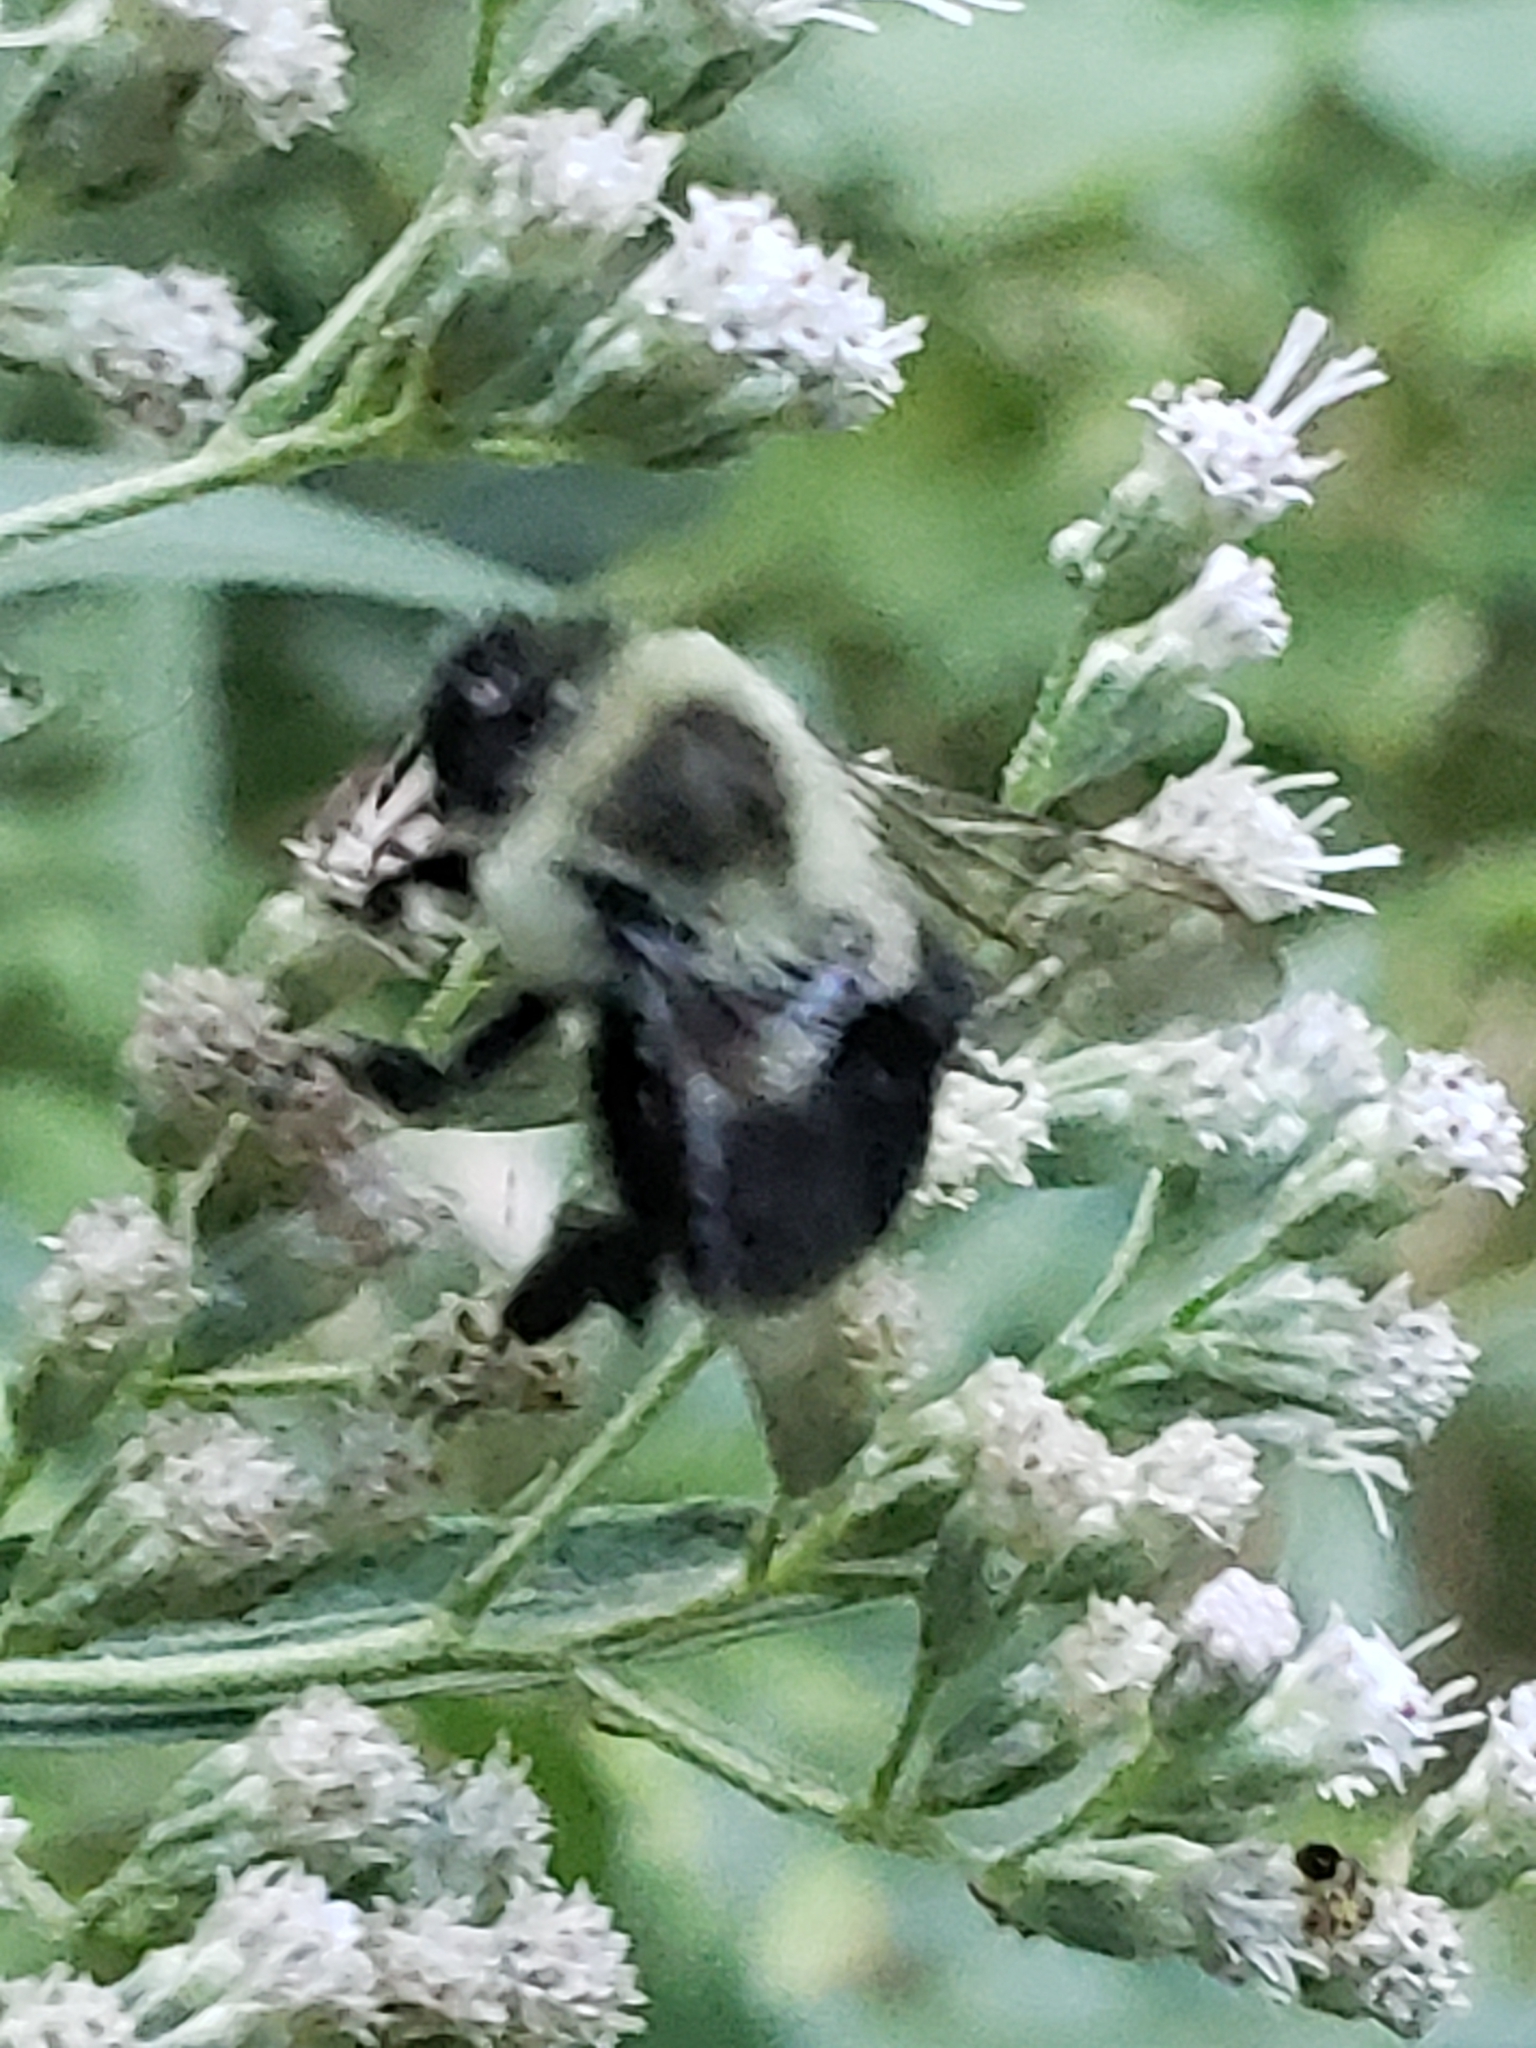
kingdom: Animalia
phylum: Arthropoda
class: Insecta
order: Hymenoptera
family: Apidae
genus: Bombus
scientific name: Bombus impatiens
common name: Common eastern bumble bee
